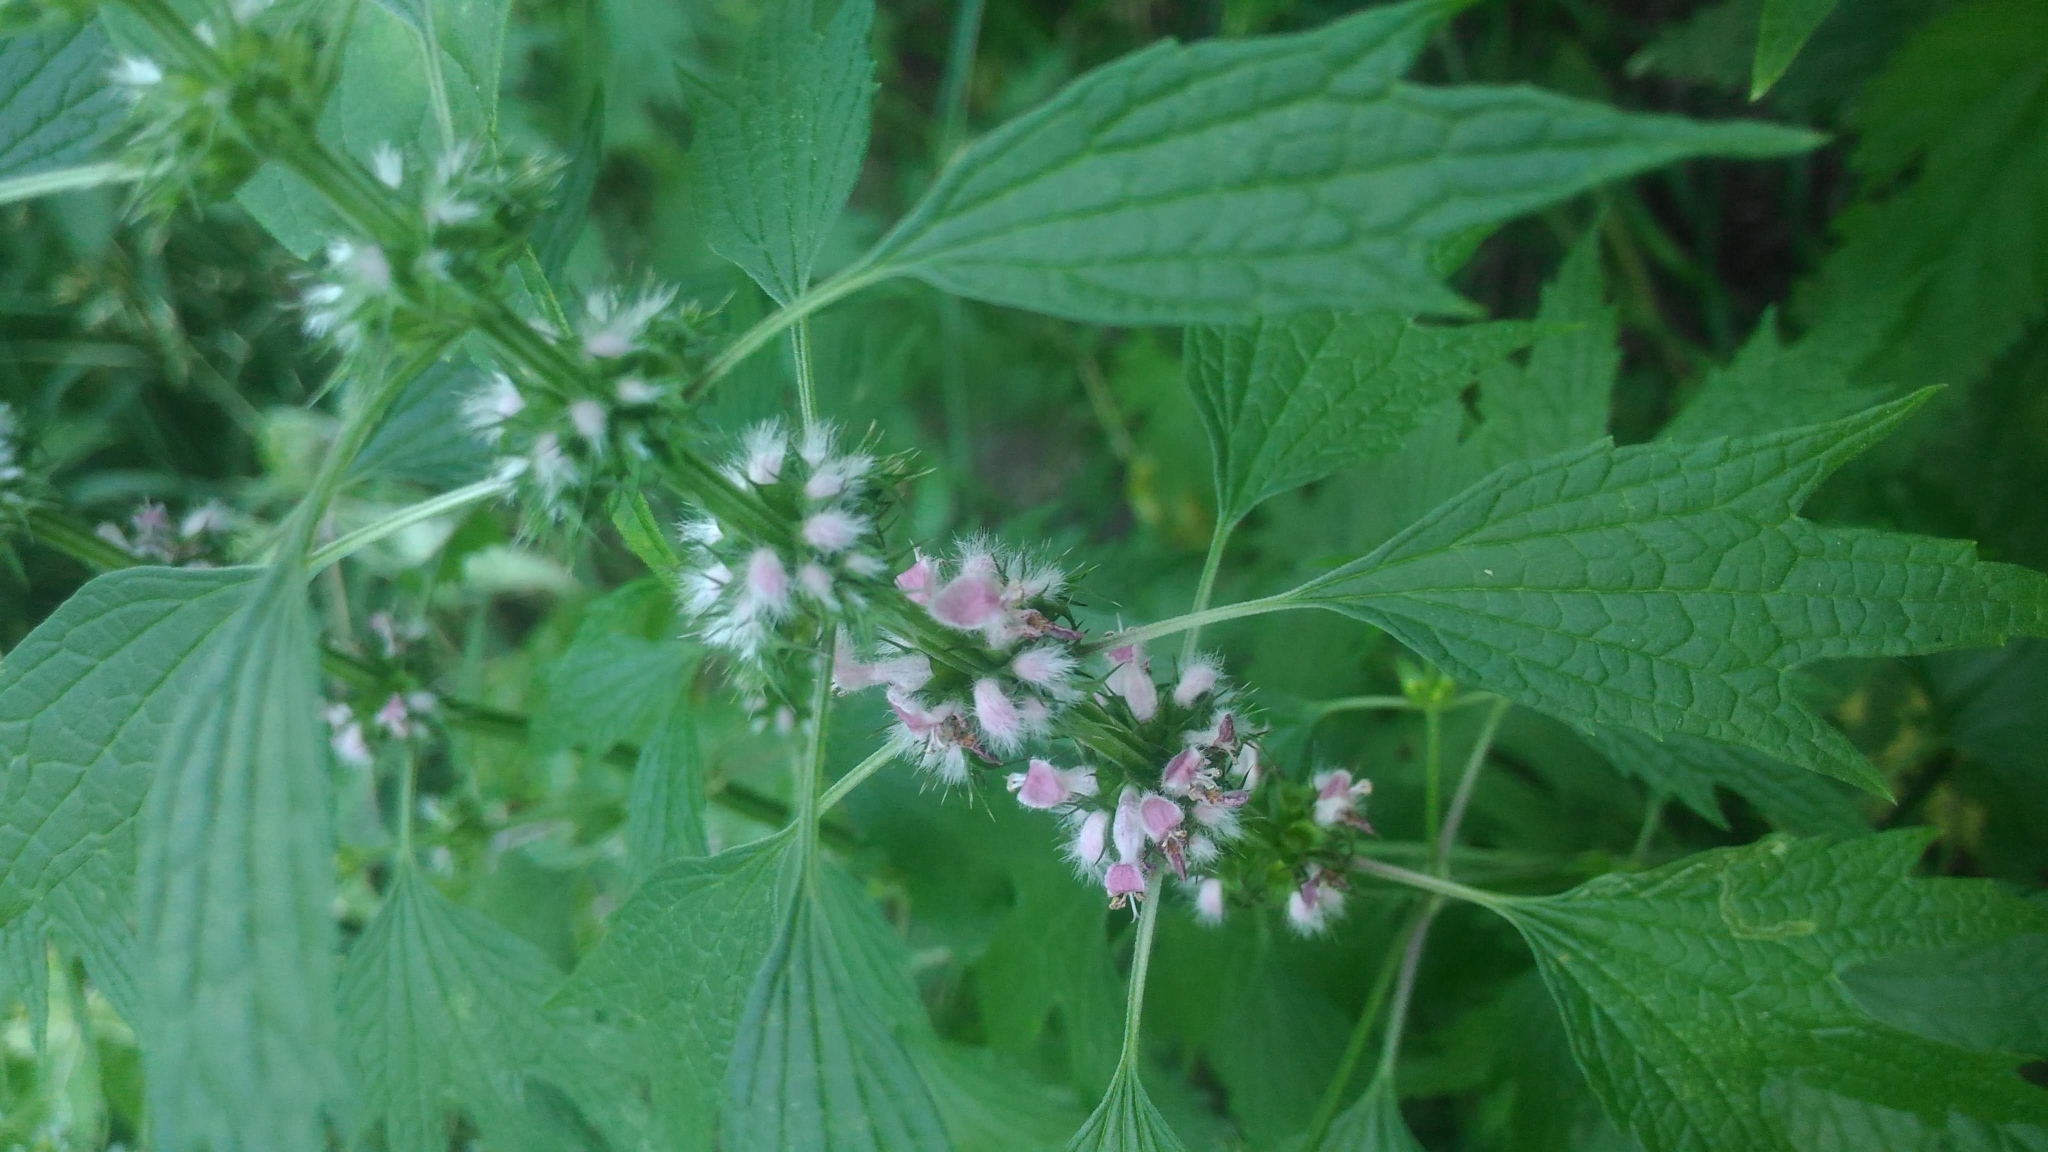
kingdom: Plantae
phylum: Tracheophyta
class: Magnoliopsida
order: Lamiales
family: Lamiaceae
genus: Leonurus
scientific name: Leonurus cardiaca
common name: Motherwort
